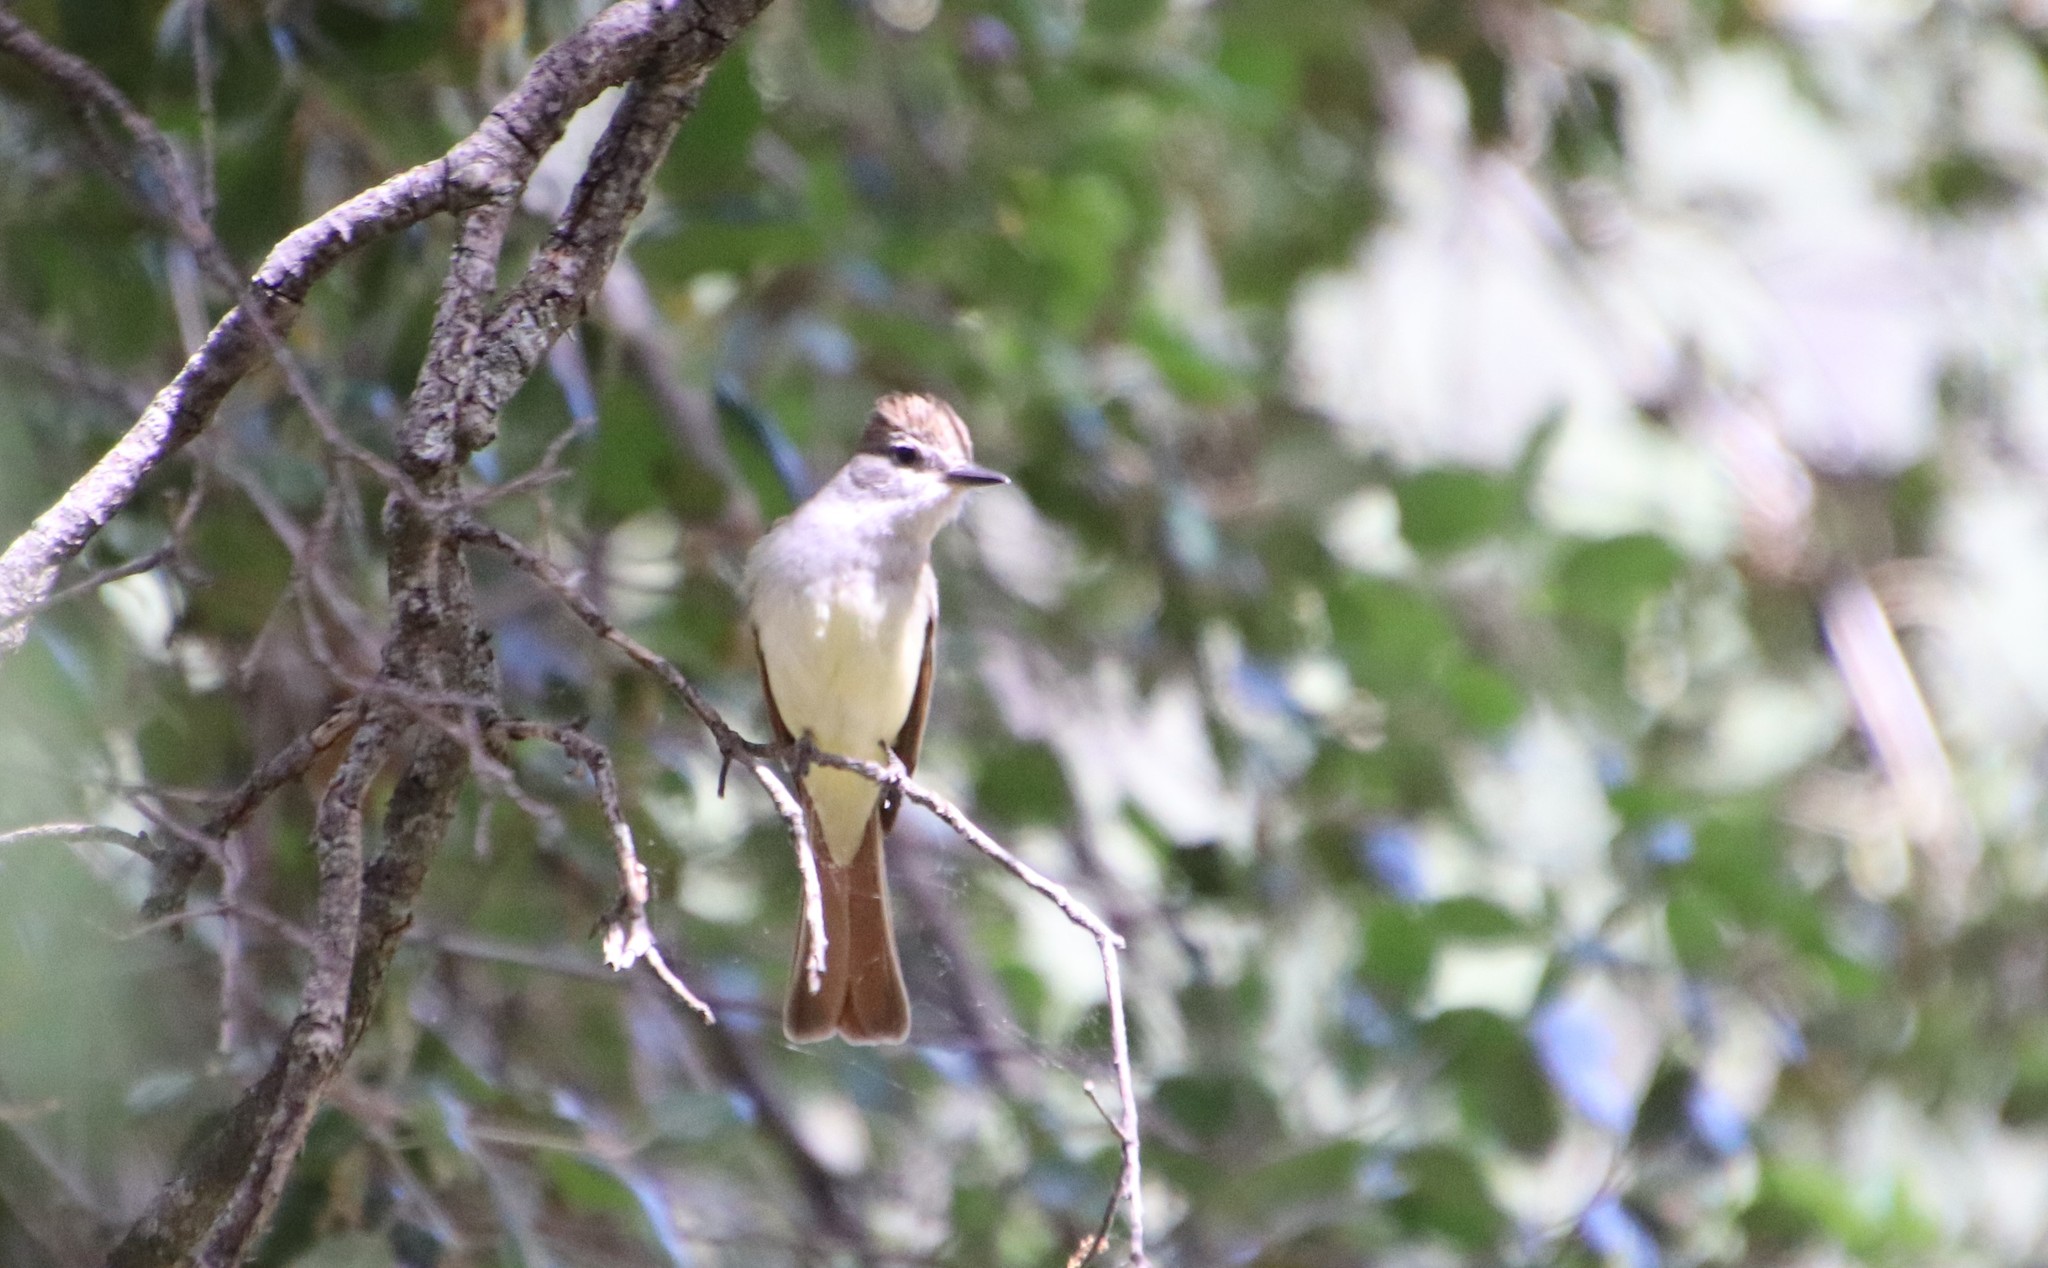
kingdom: Animalia
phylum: Chordata
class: Aves
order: Passeriformes
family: Tyrannidae
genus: Myiarchus
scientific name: Myiarchus cinerascens
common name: Ash-throated flycatcher
